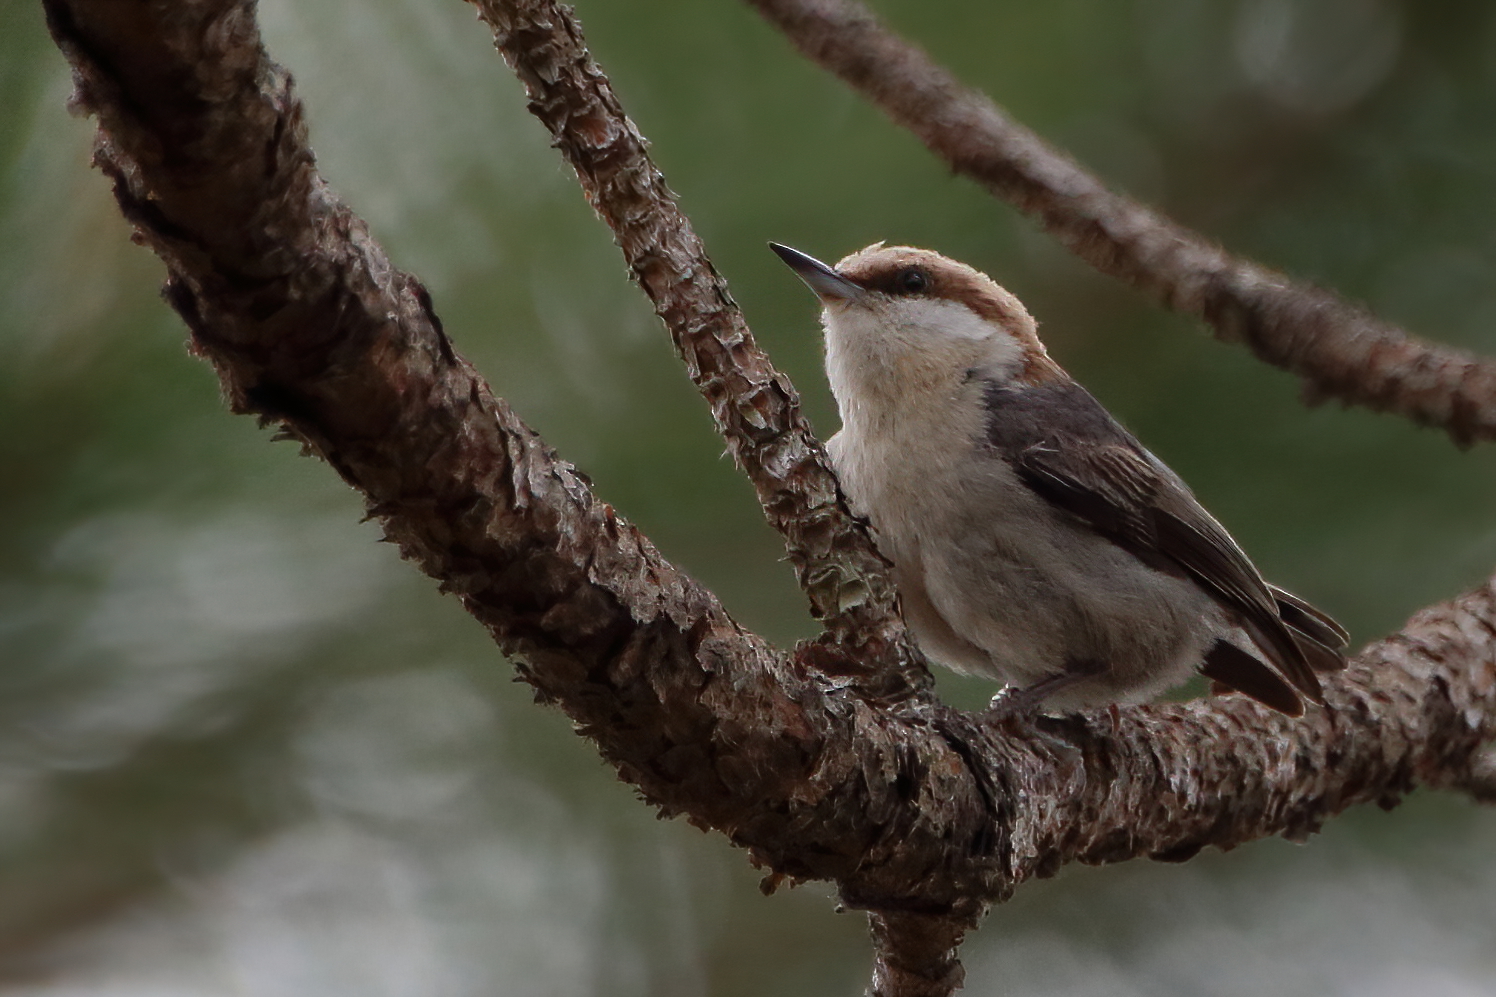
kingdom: Animalia
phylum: Chordata
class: Aves
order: Passeriformes
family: Sittidae
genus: Sitta
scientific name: Sitta pusilla
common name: Brown-headed nuthatch
